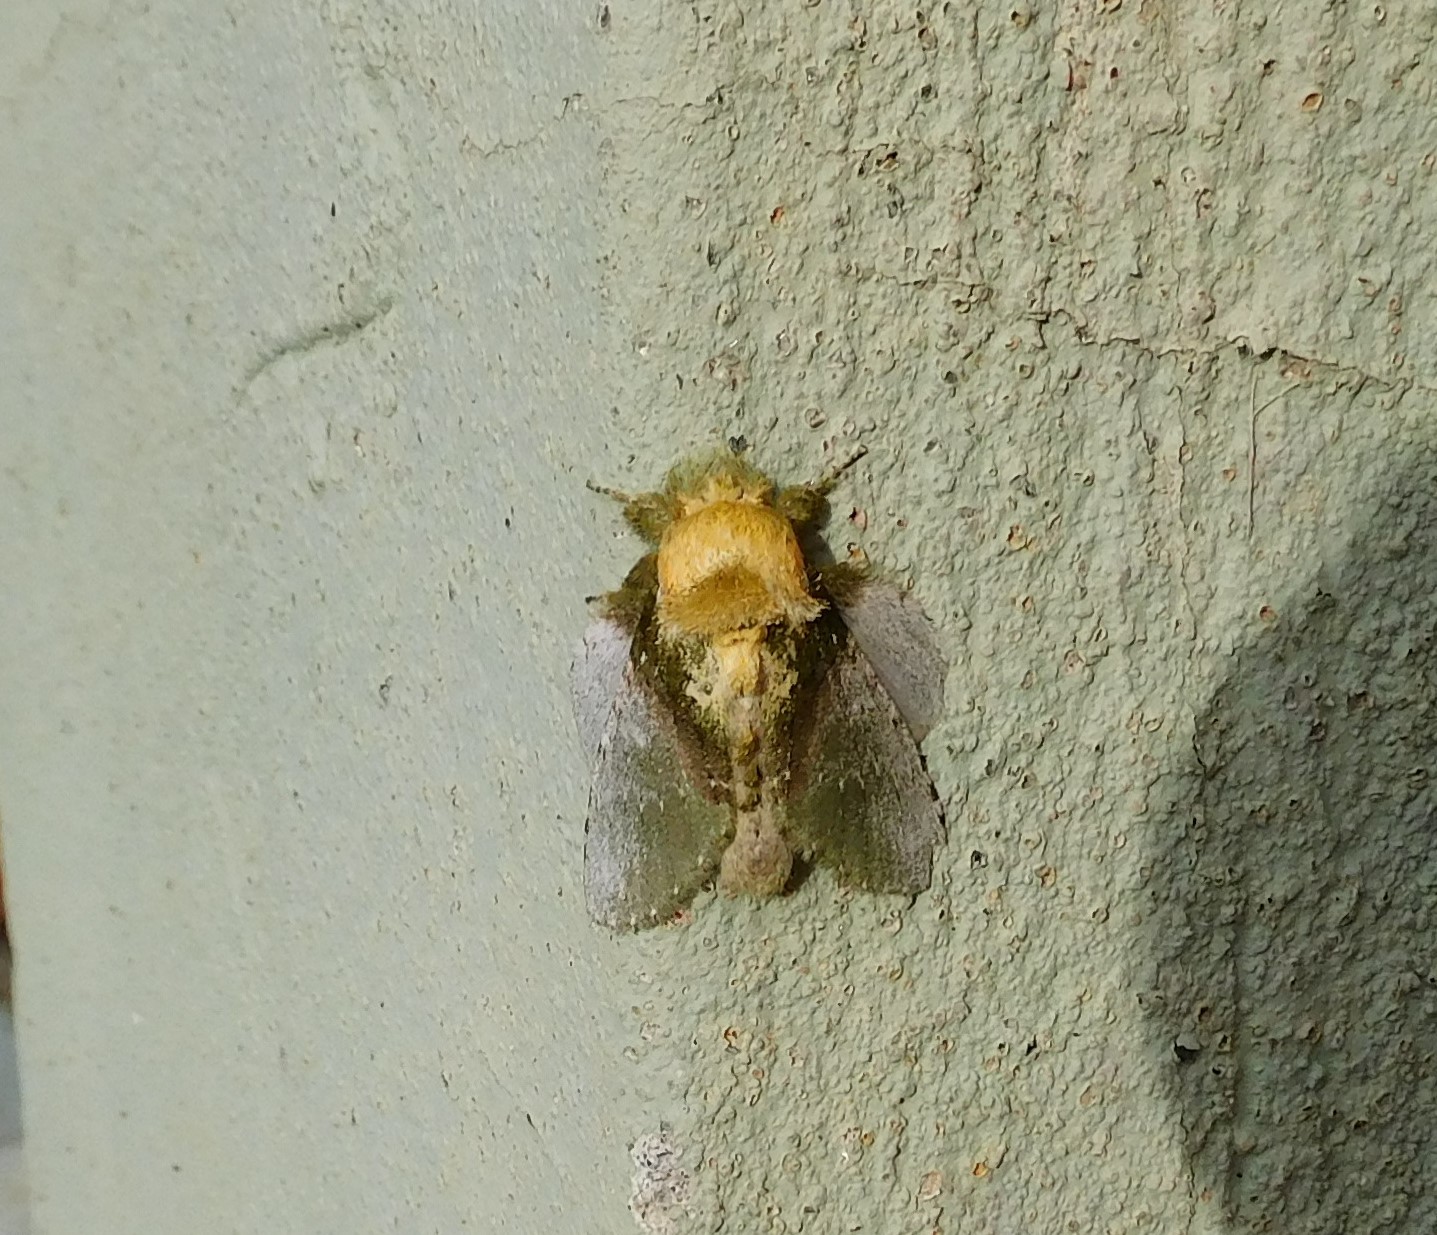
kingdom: Animalia
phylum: Arthropoda
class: Insecta
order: Lepidoptera
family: Notodontidae
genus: Disphragis
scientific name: Disphragis manethusa
